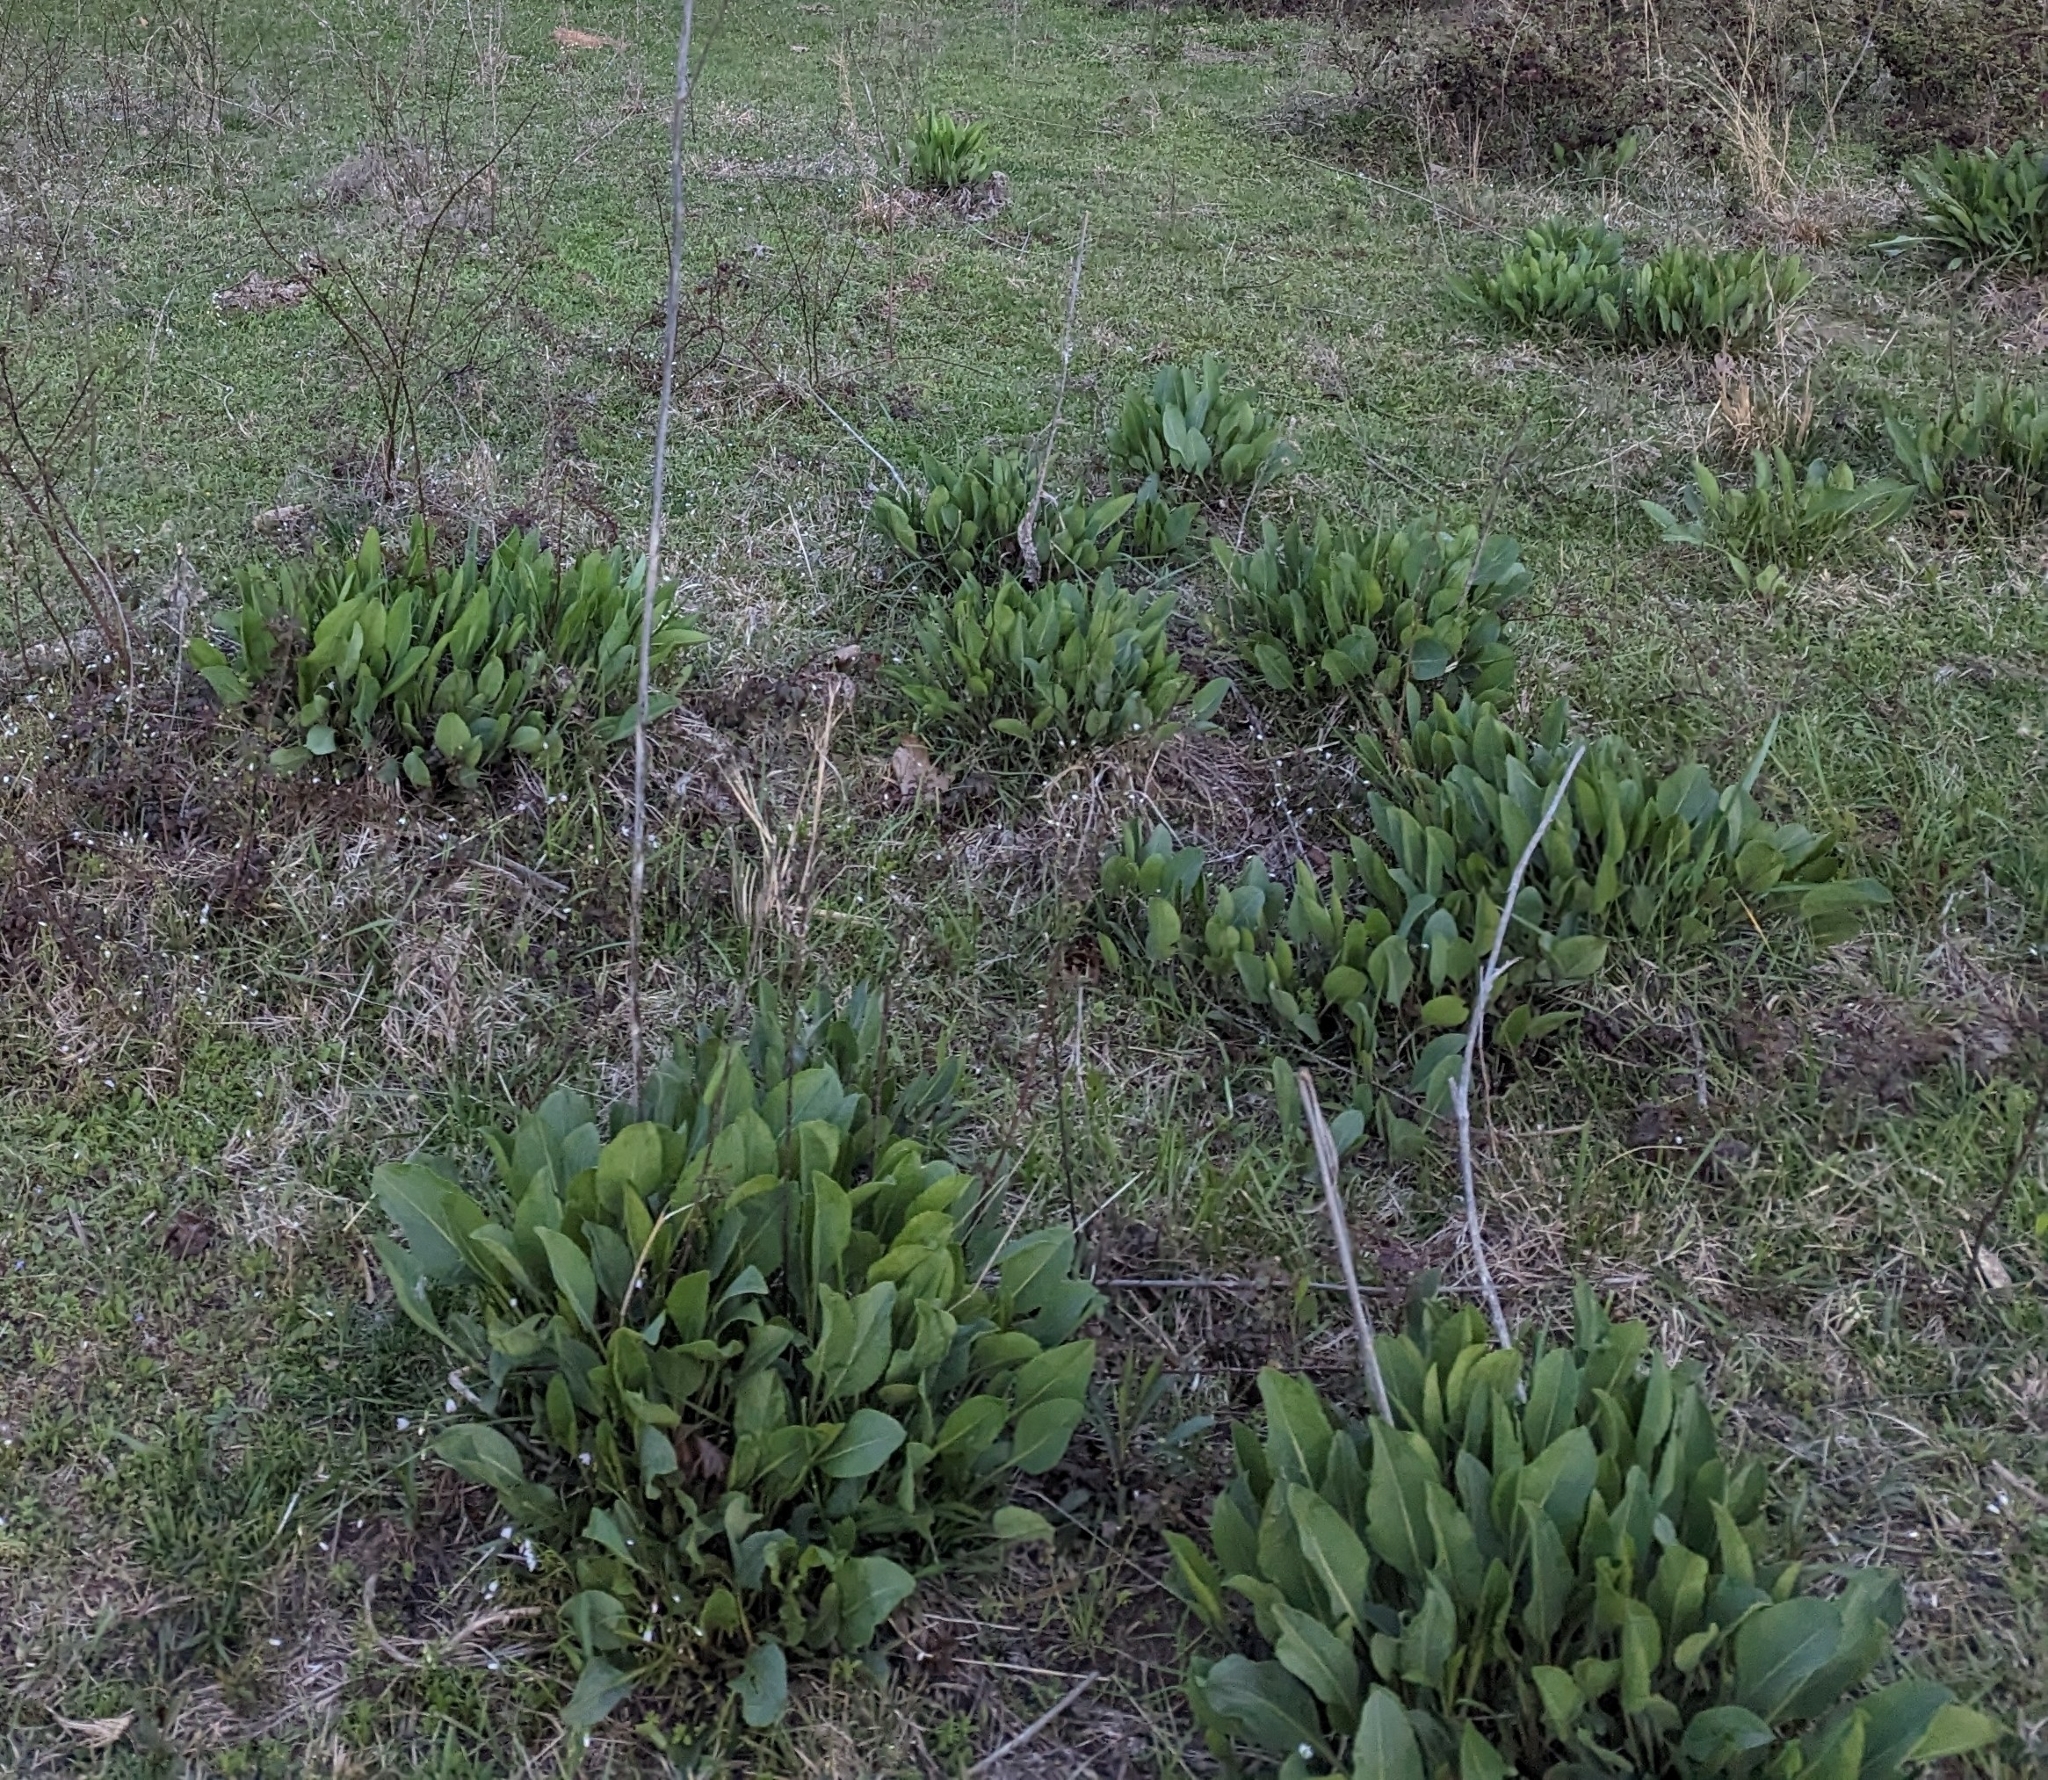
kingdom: Plantae
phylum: Tracheophyta
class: Magnoliopsida
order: Asterales
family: Asteraceae
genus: Rudbeckia
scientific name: Rudbeckia maxima
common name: Cabbage coneflower
